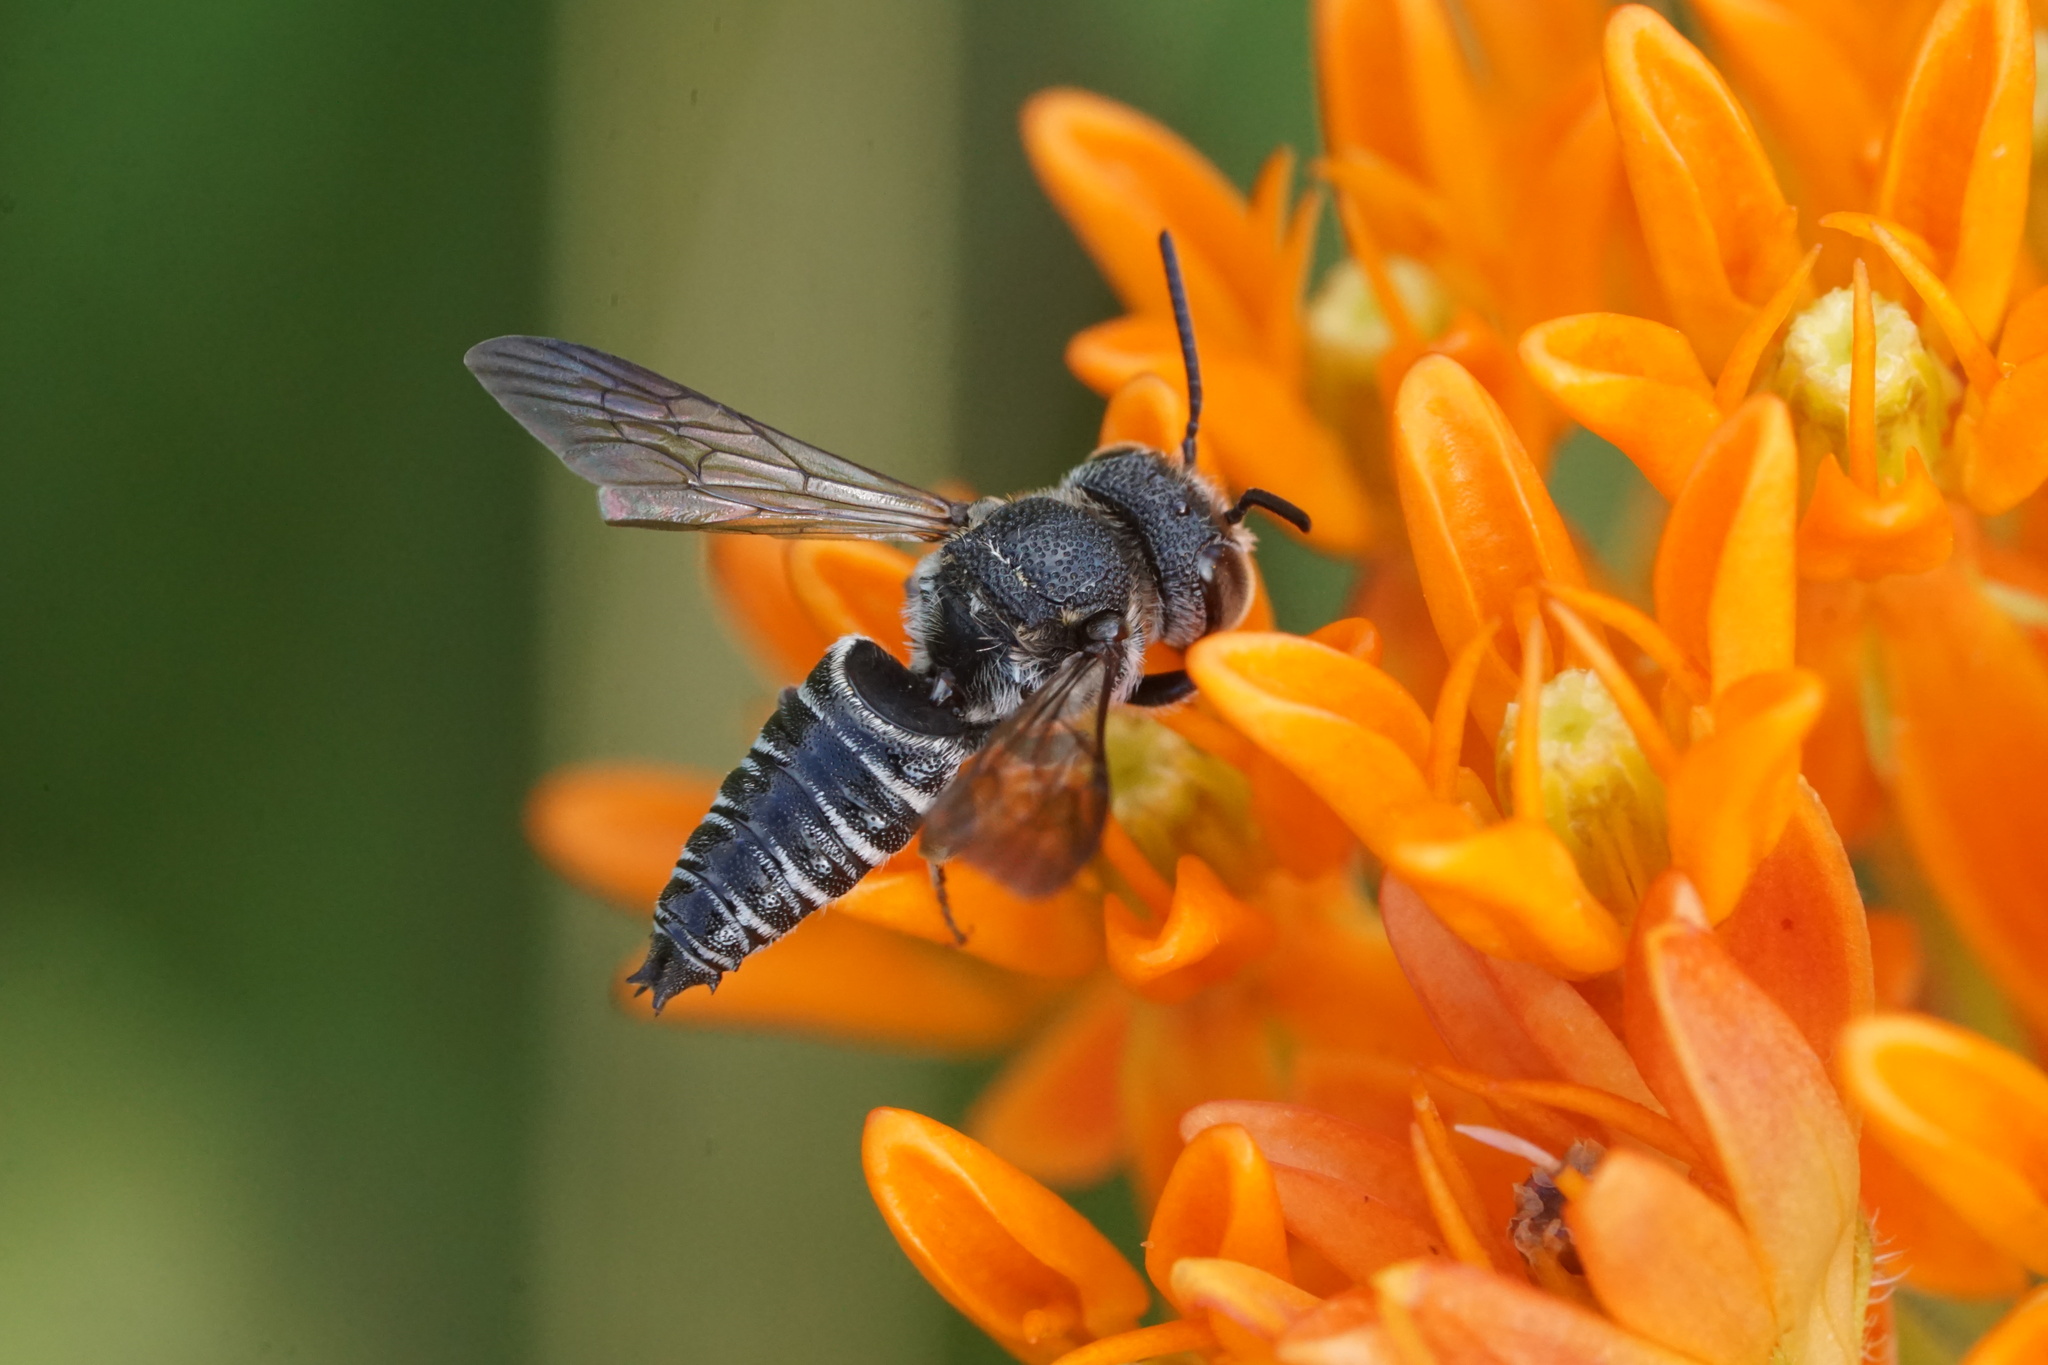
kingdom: Animalia
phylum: Arthropoda
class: Insecta
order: Hymenoptera
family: Megachilidae
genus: Coelioxys
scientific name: Coelioxys modestus
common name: Modest sharptail
